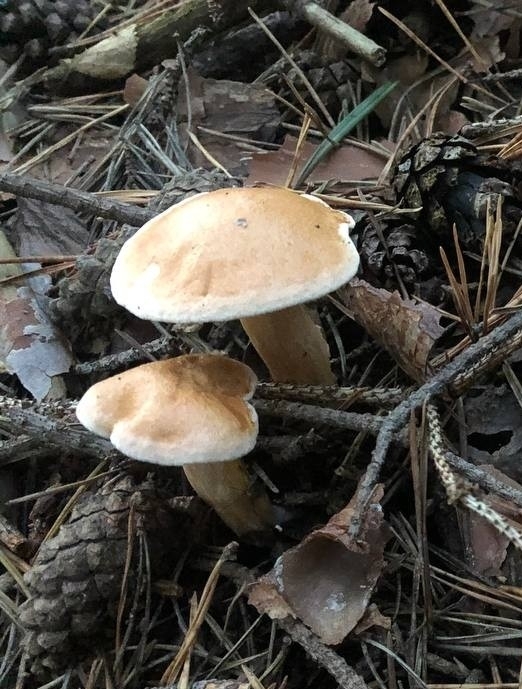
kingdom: Fungi
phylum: Basidiomycota
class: Agaricomycetes
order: Boletales
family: Suillaceae
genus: Suillus
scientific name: Suillus bovinus
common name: Bovine bolete
